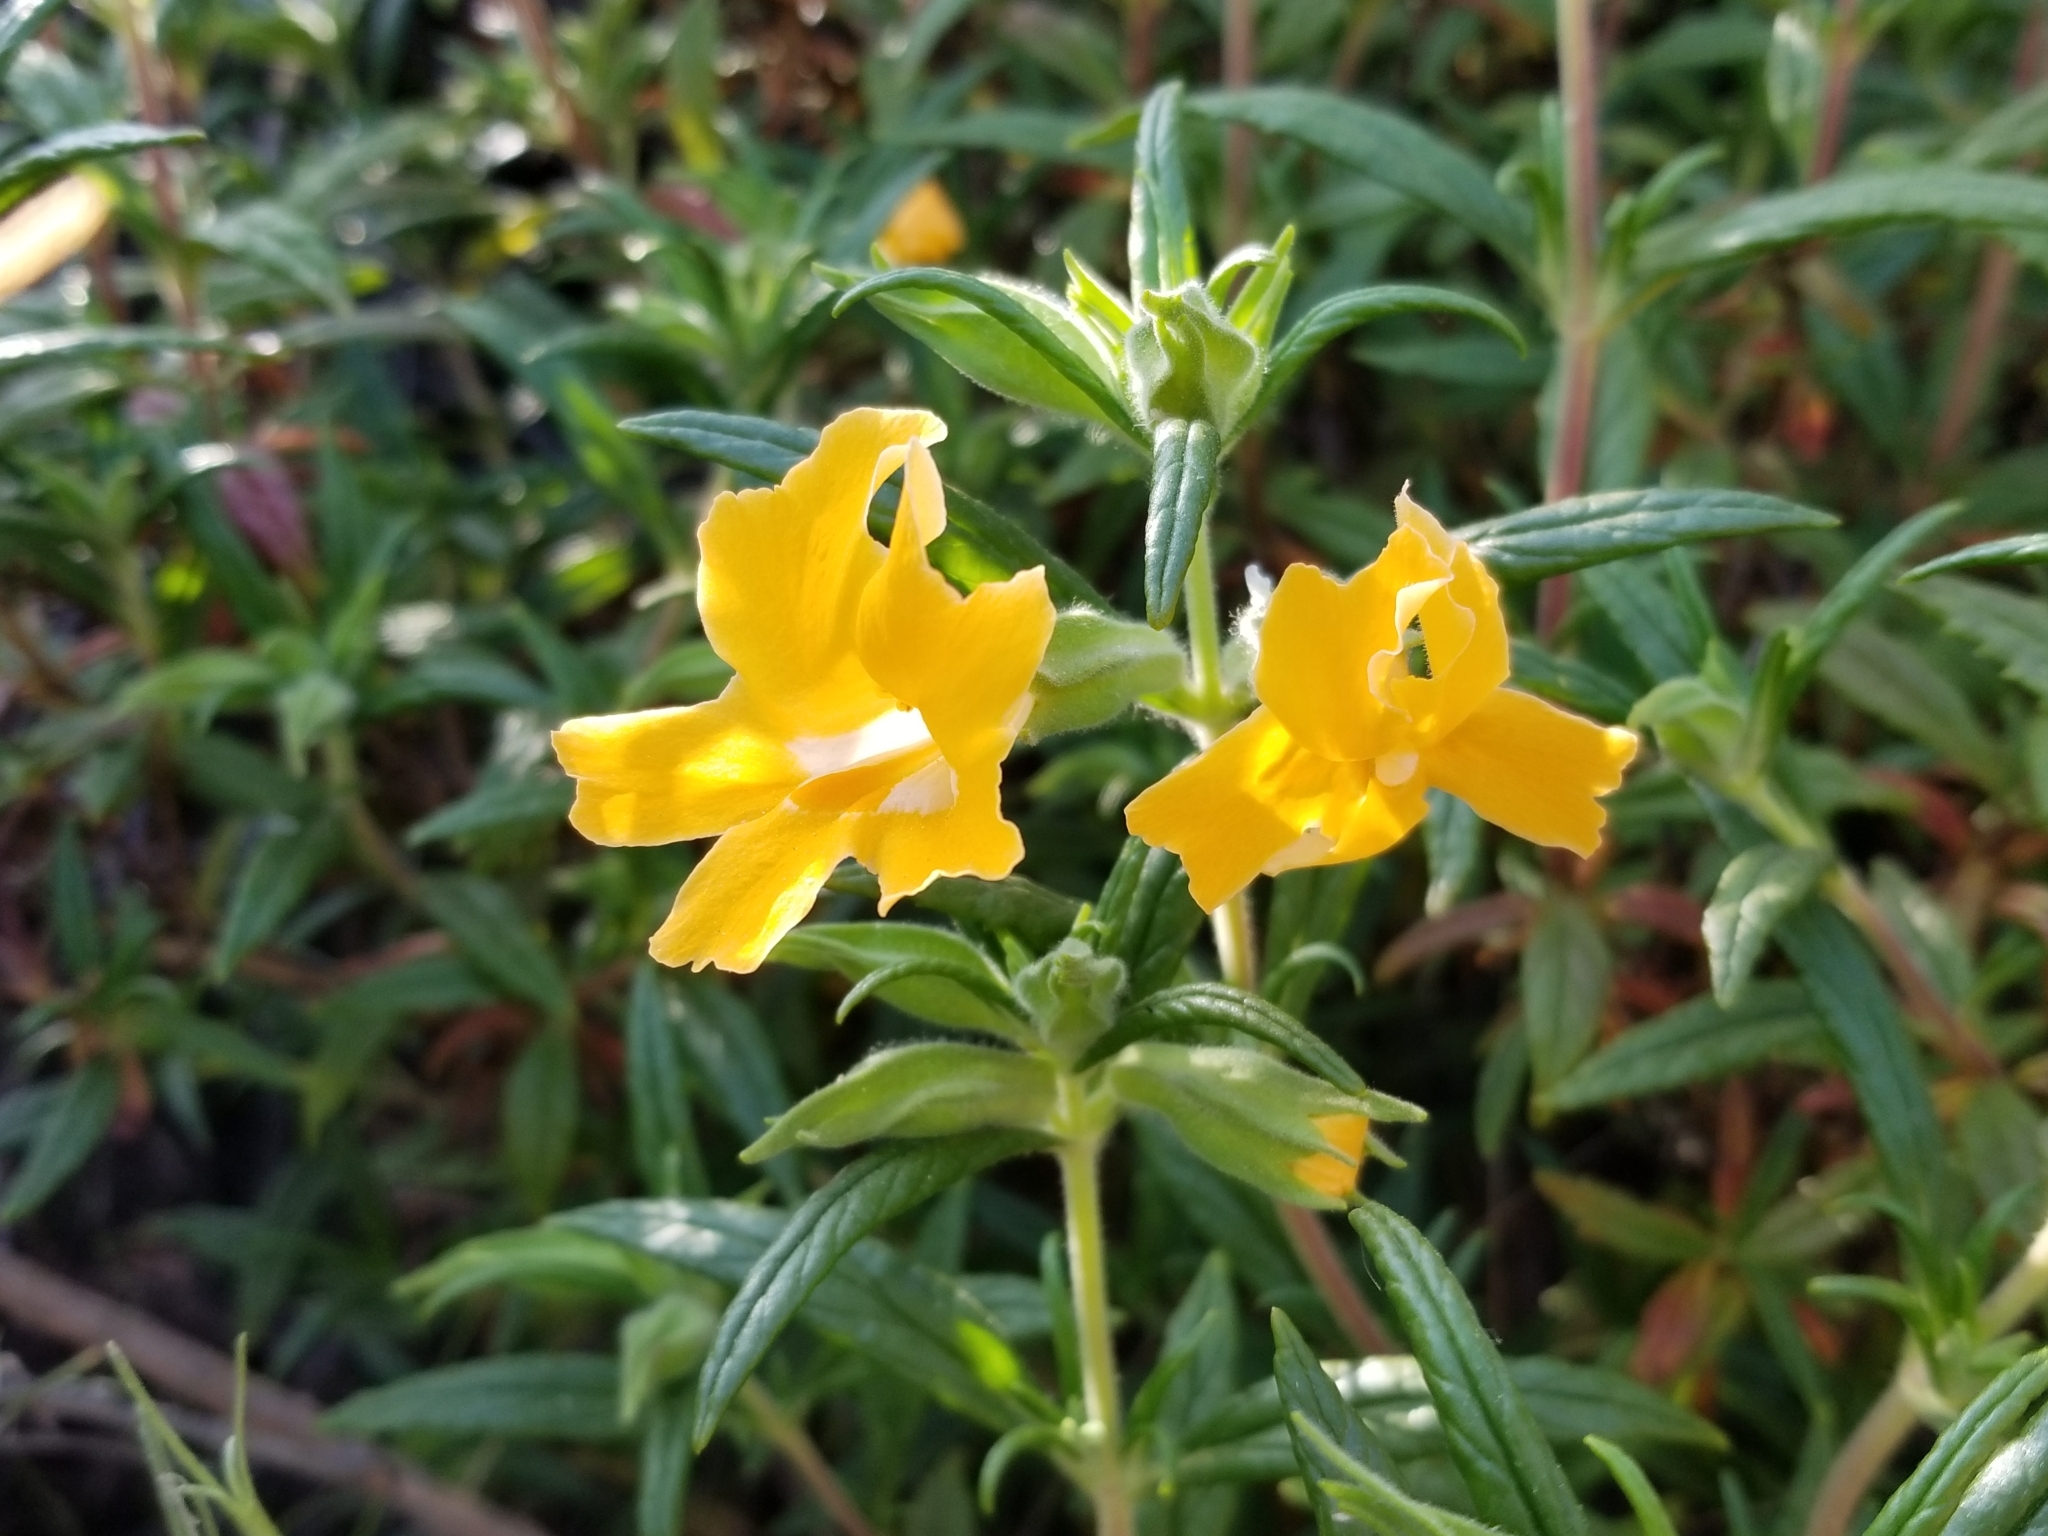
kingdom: Plantae
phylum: Tracheophyta
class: Magnoliopsida
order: Lamiales
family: Phrymaceae
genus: Diplacus
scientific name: Diplacus longiflorus
